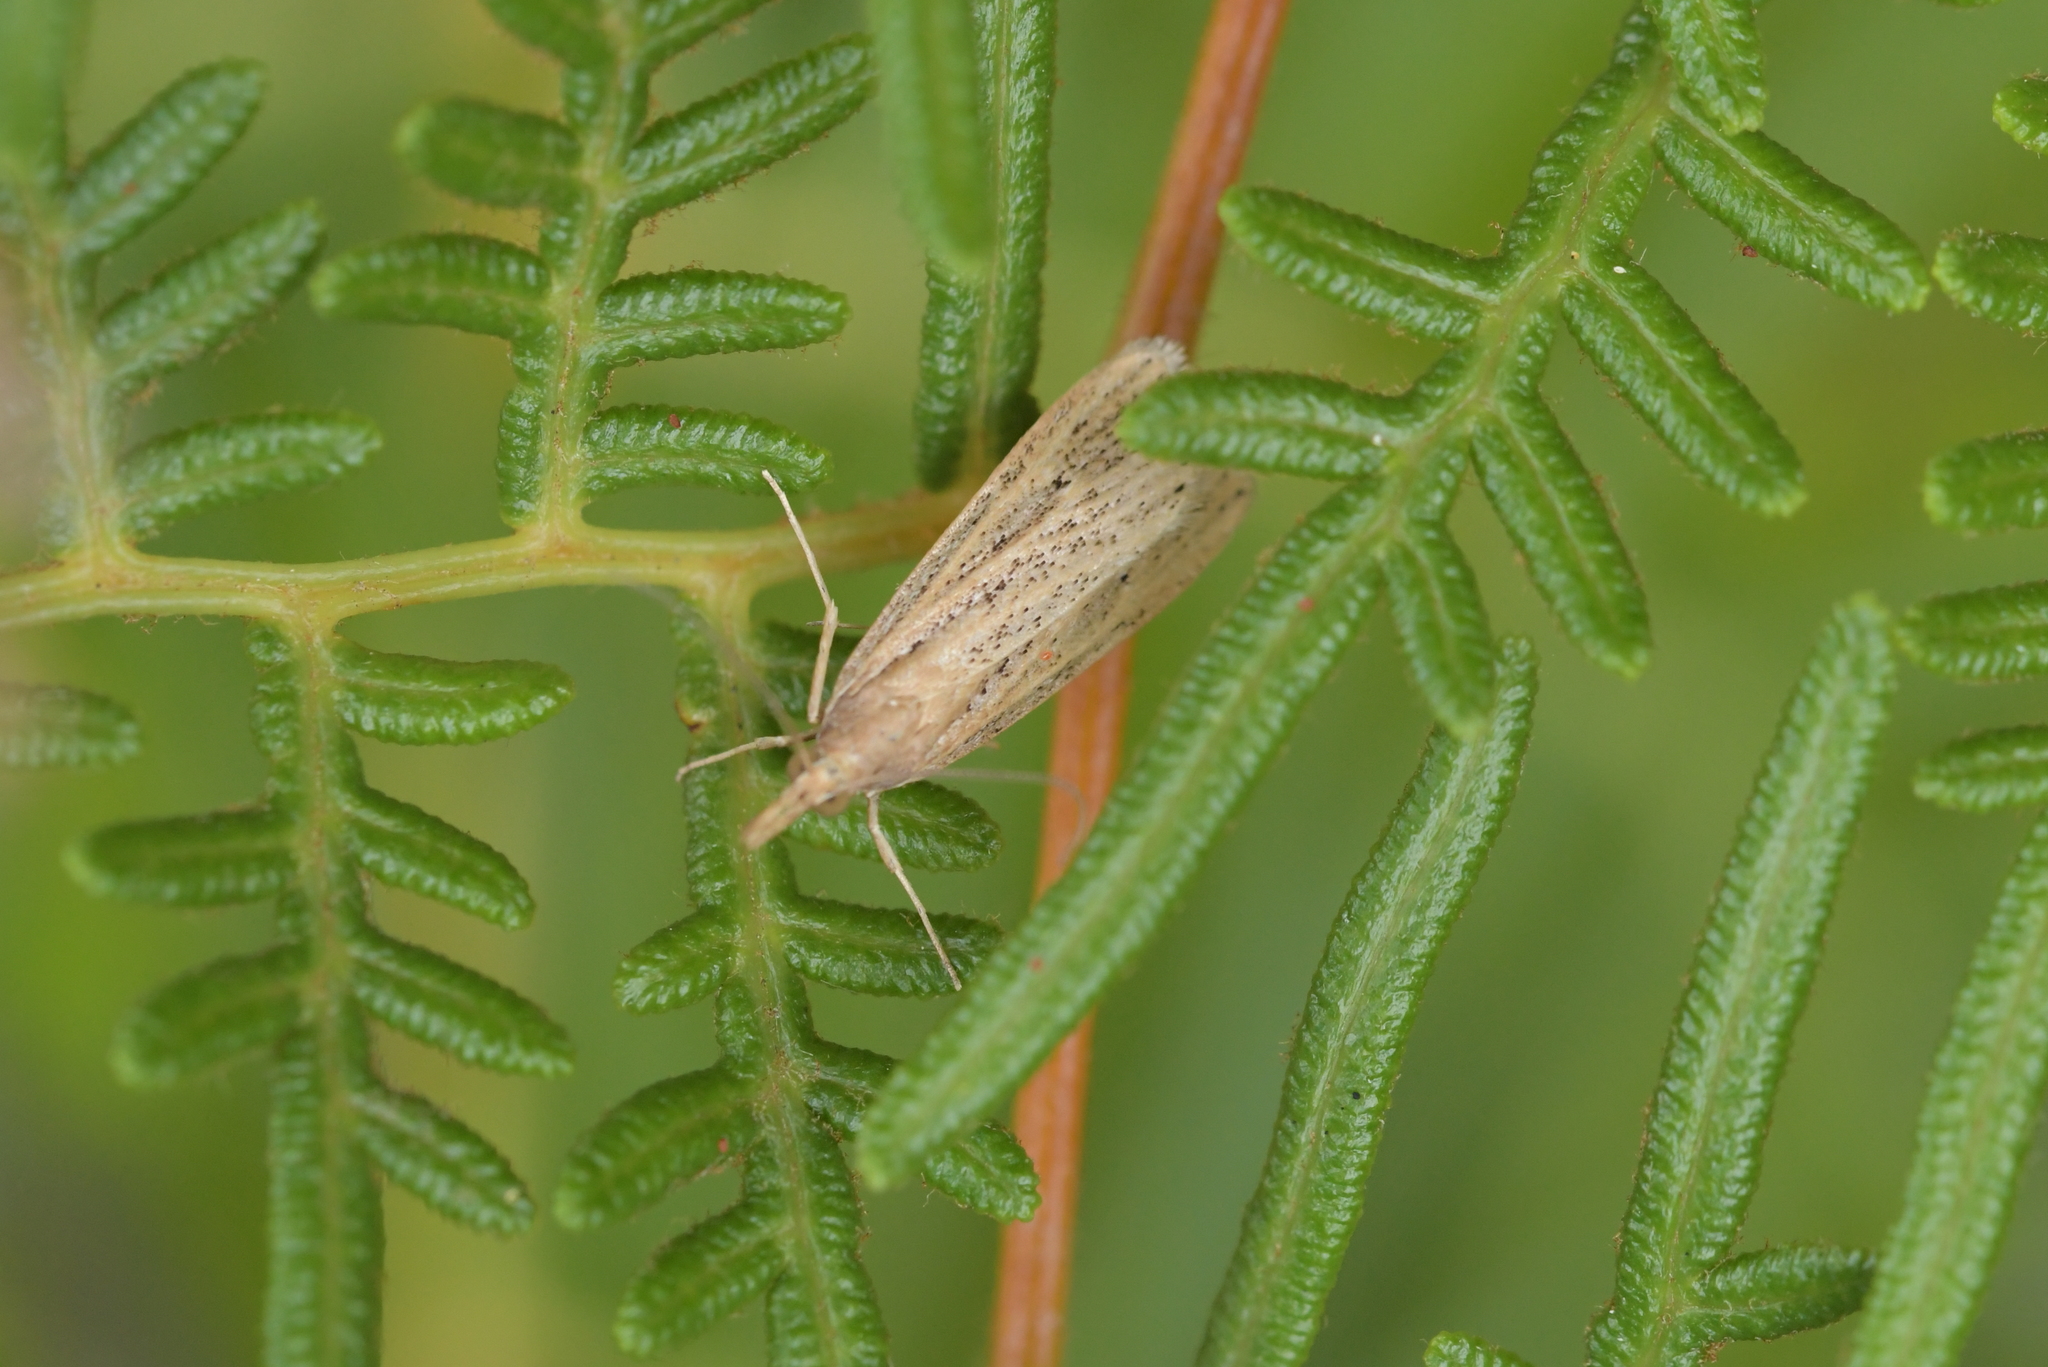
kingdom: Animalia
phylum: Arthropoda
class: Insecta
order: Lepidoptera
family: Crambidae
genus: Eudonia
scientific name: Eudonia sabulosella
